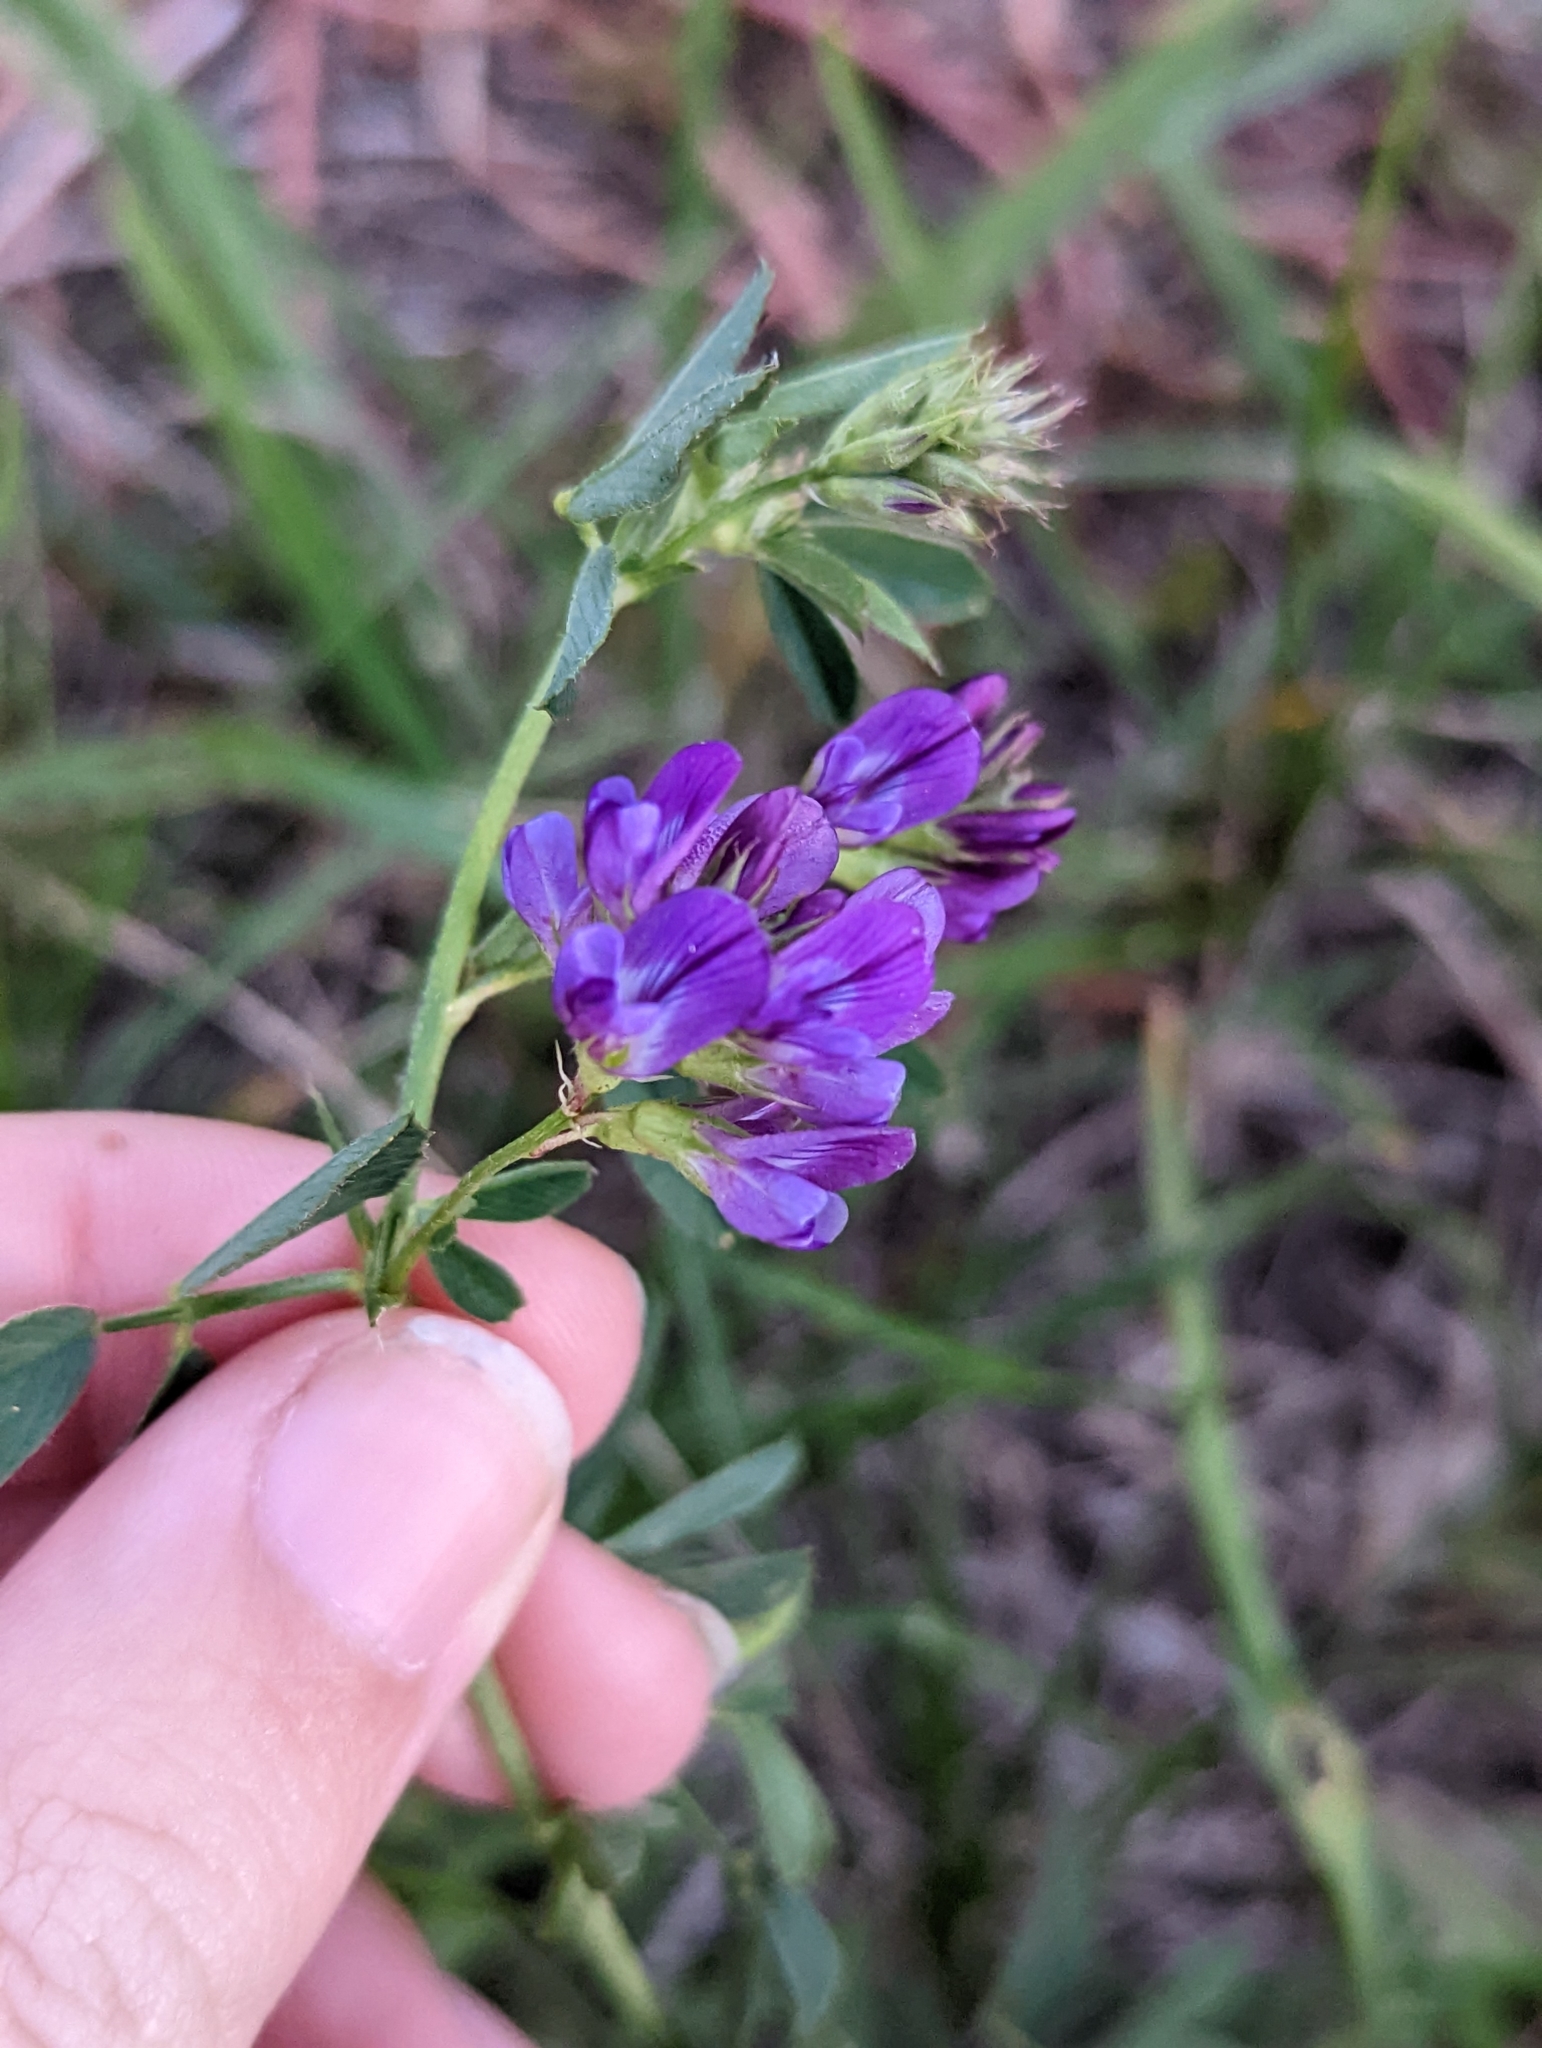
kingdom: Plantae
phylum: Tracheophyta
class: Magnoliopsida
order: Fabales
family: Fabaceae
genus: Medicago
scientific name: Medicago sativa
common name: Alfalfa
